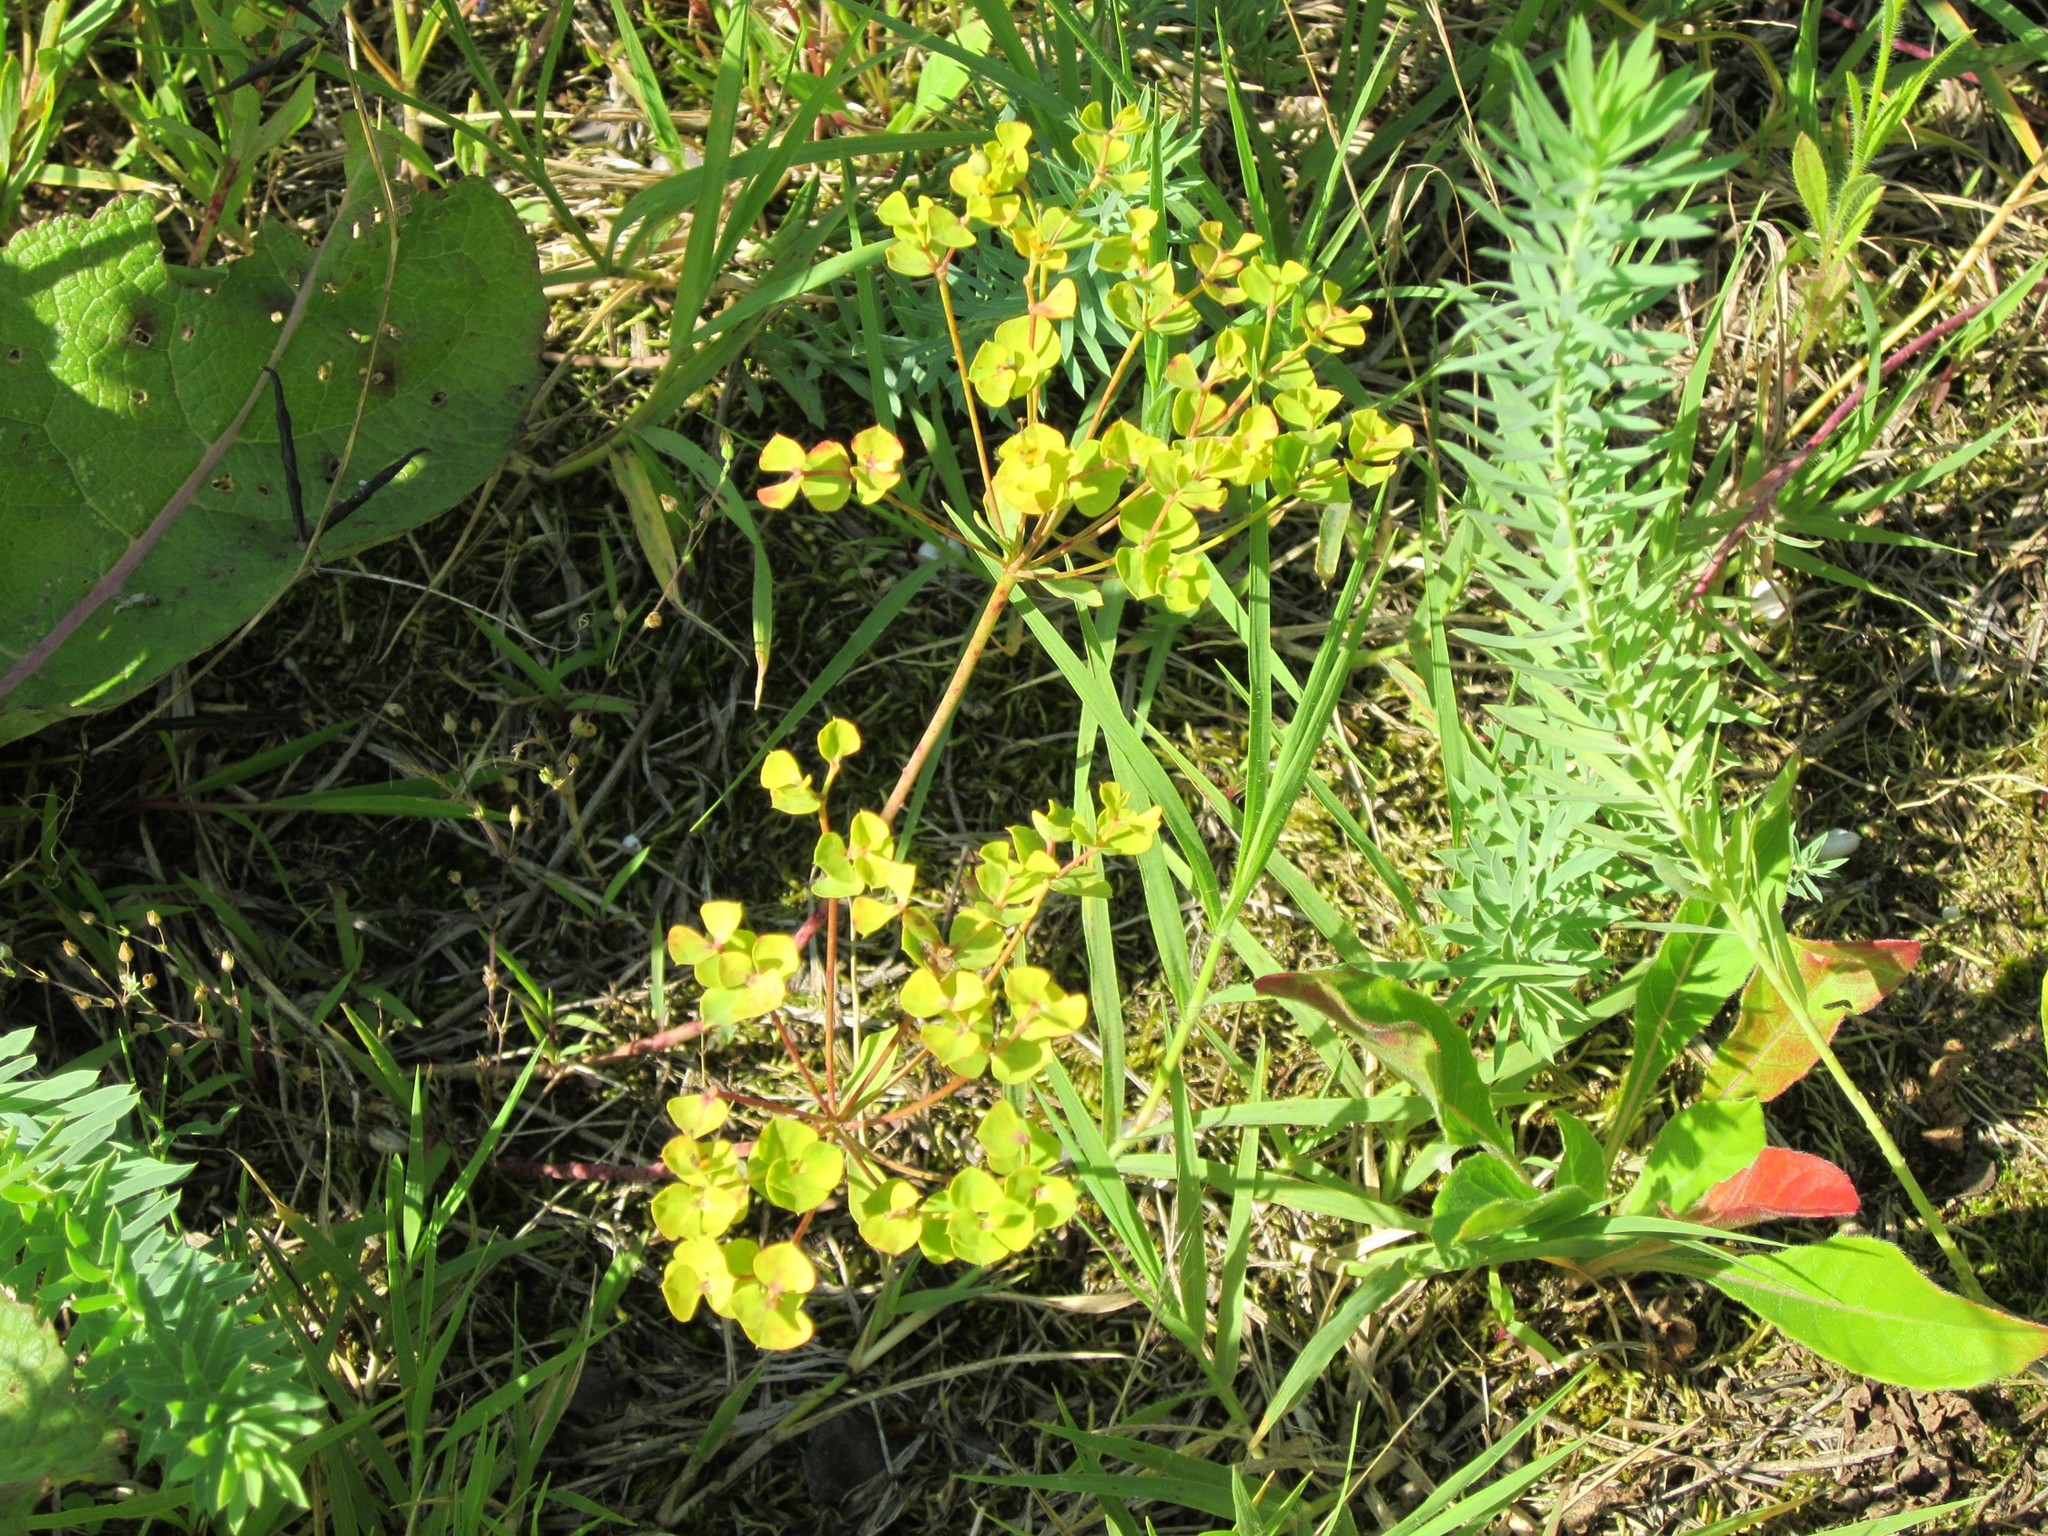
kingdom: Plantae
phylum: Tracheophyta
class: Magnoliopsida
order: Malpighiales
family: Euphorbiaceae
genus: Euphorbia
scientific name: Euphorbia cyparissias
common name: Cypress spurge
